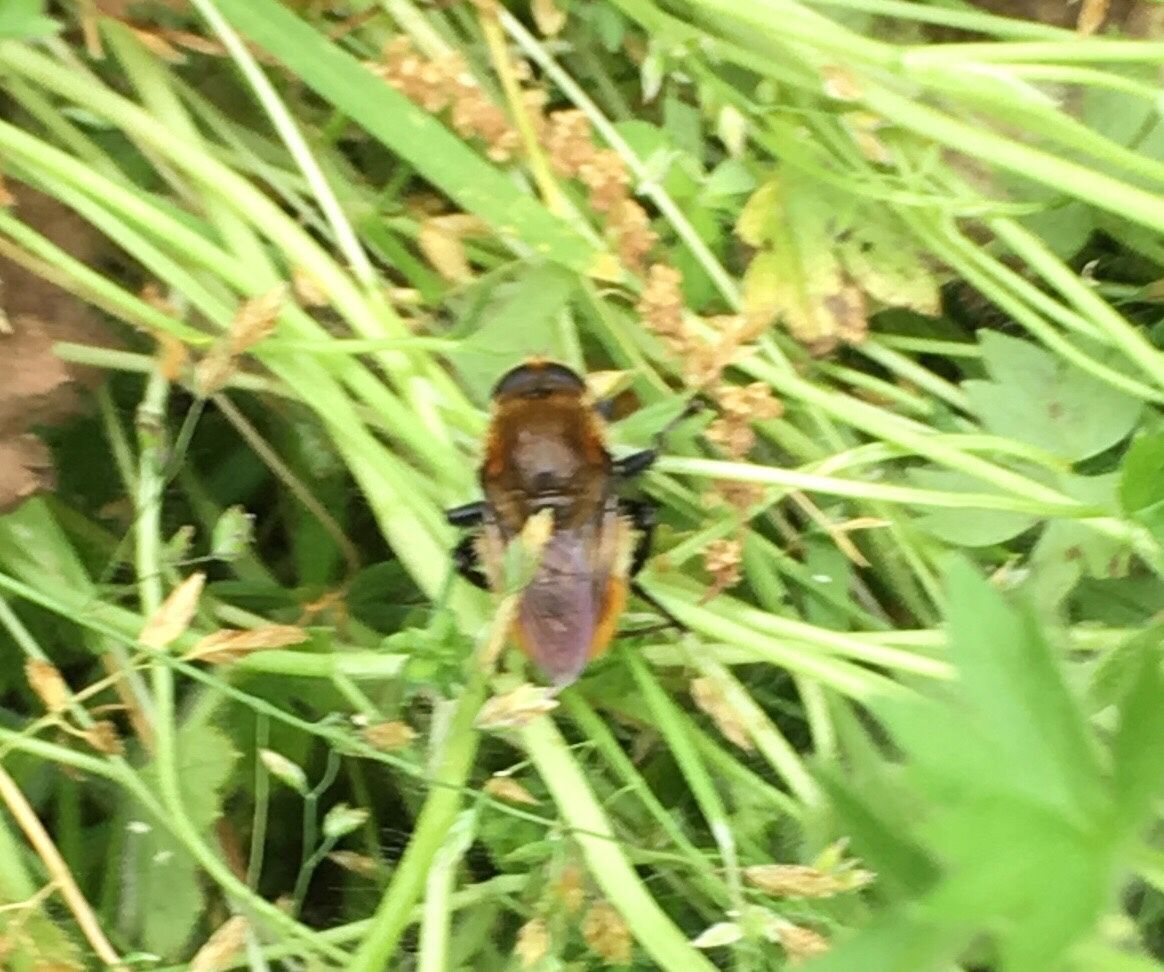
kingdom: Animalia
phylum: Arthropoda
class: Insecta
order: Diptera
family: Syrphidae
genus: Merodon
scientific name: Merodon equestris
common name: Greater bulb-fly
